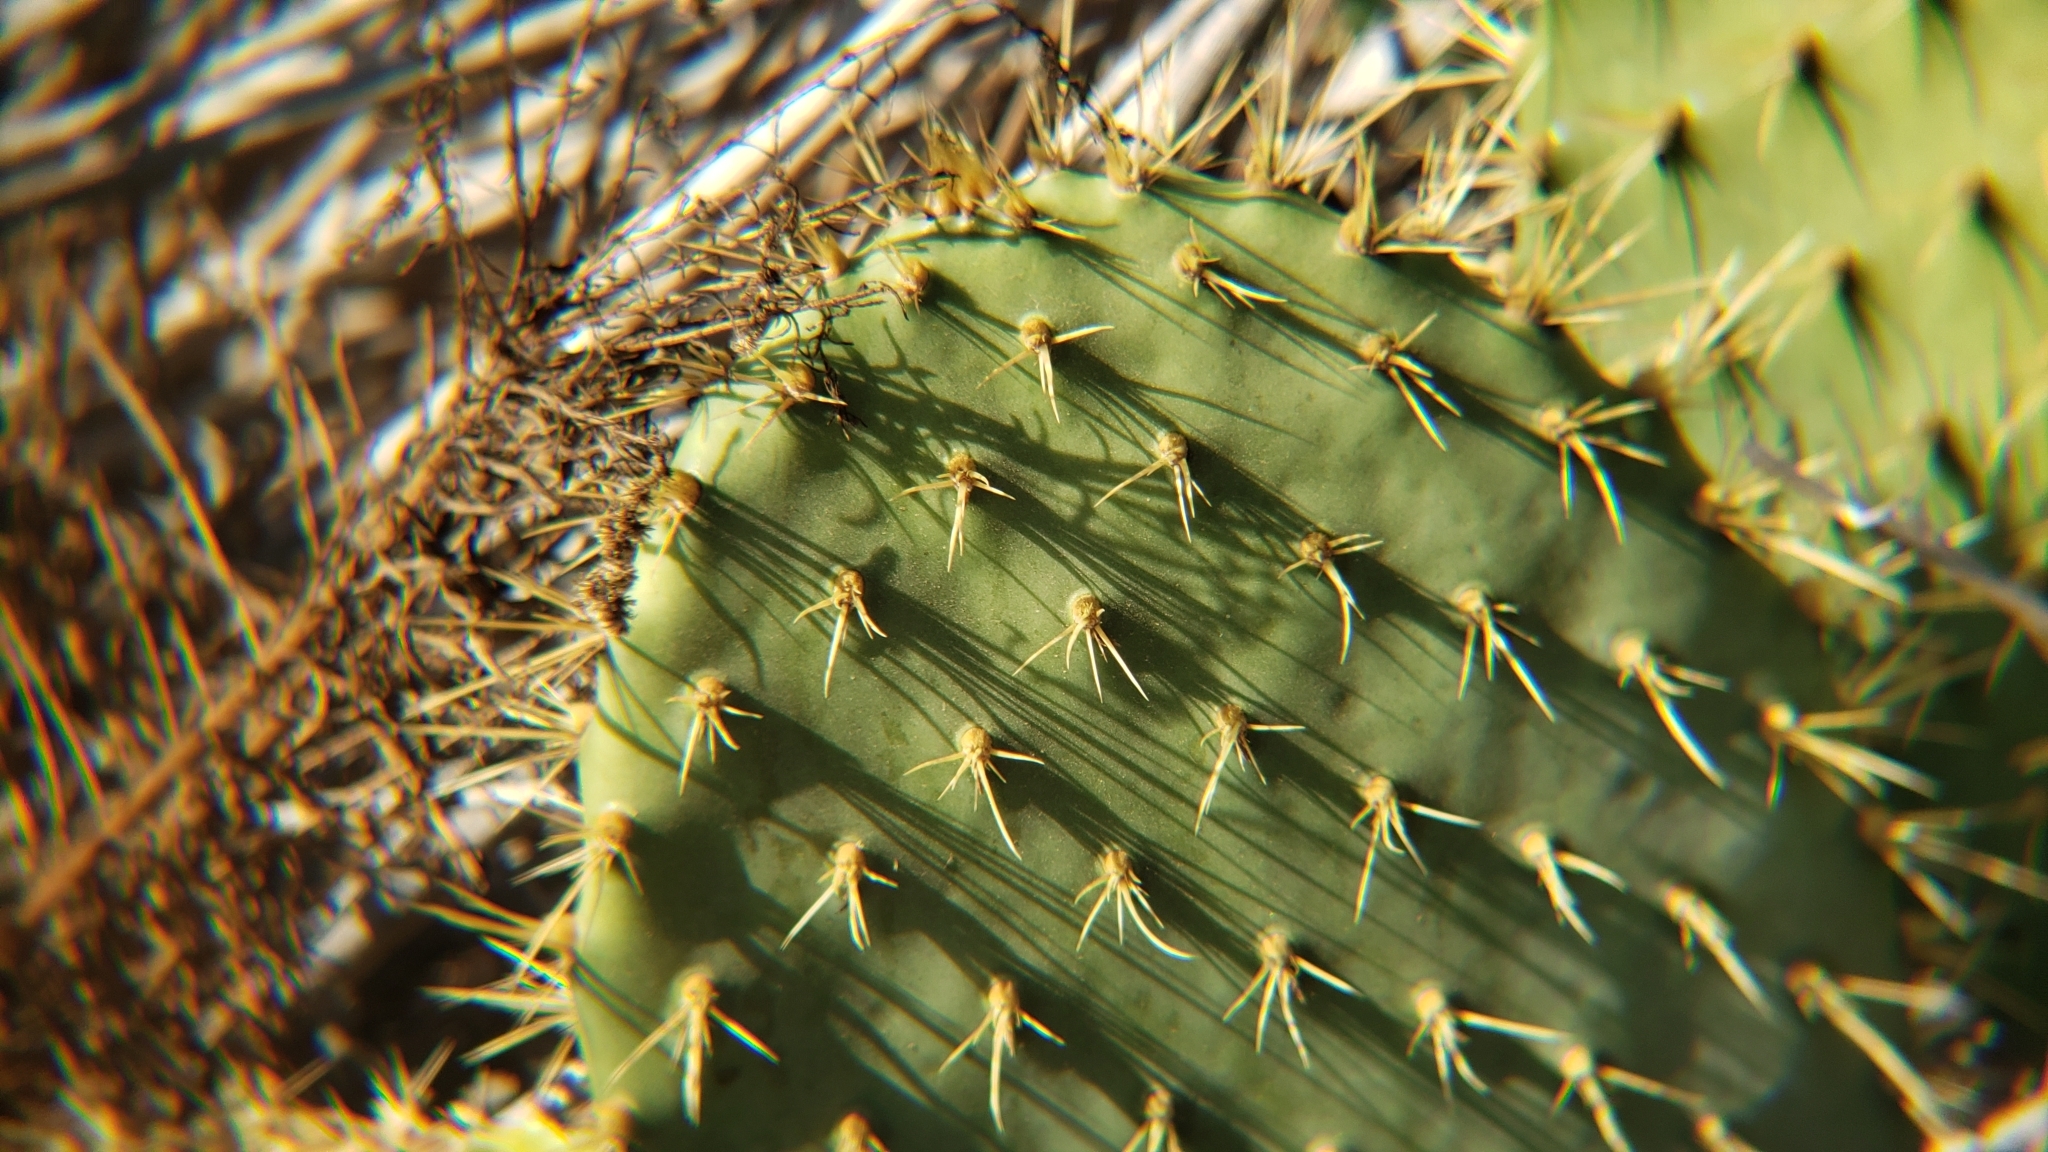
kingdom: Plantae
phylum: Tracheophyta
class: Magnoliopsida
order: Caryophyllales
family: Cactaceae
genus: Opuntia
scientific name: Opuntia littoralis
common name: Coastal prickly-pear
